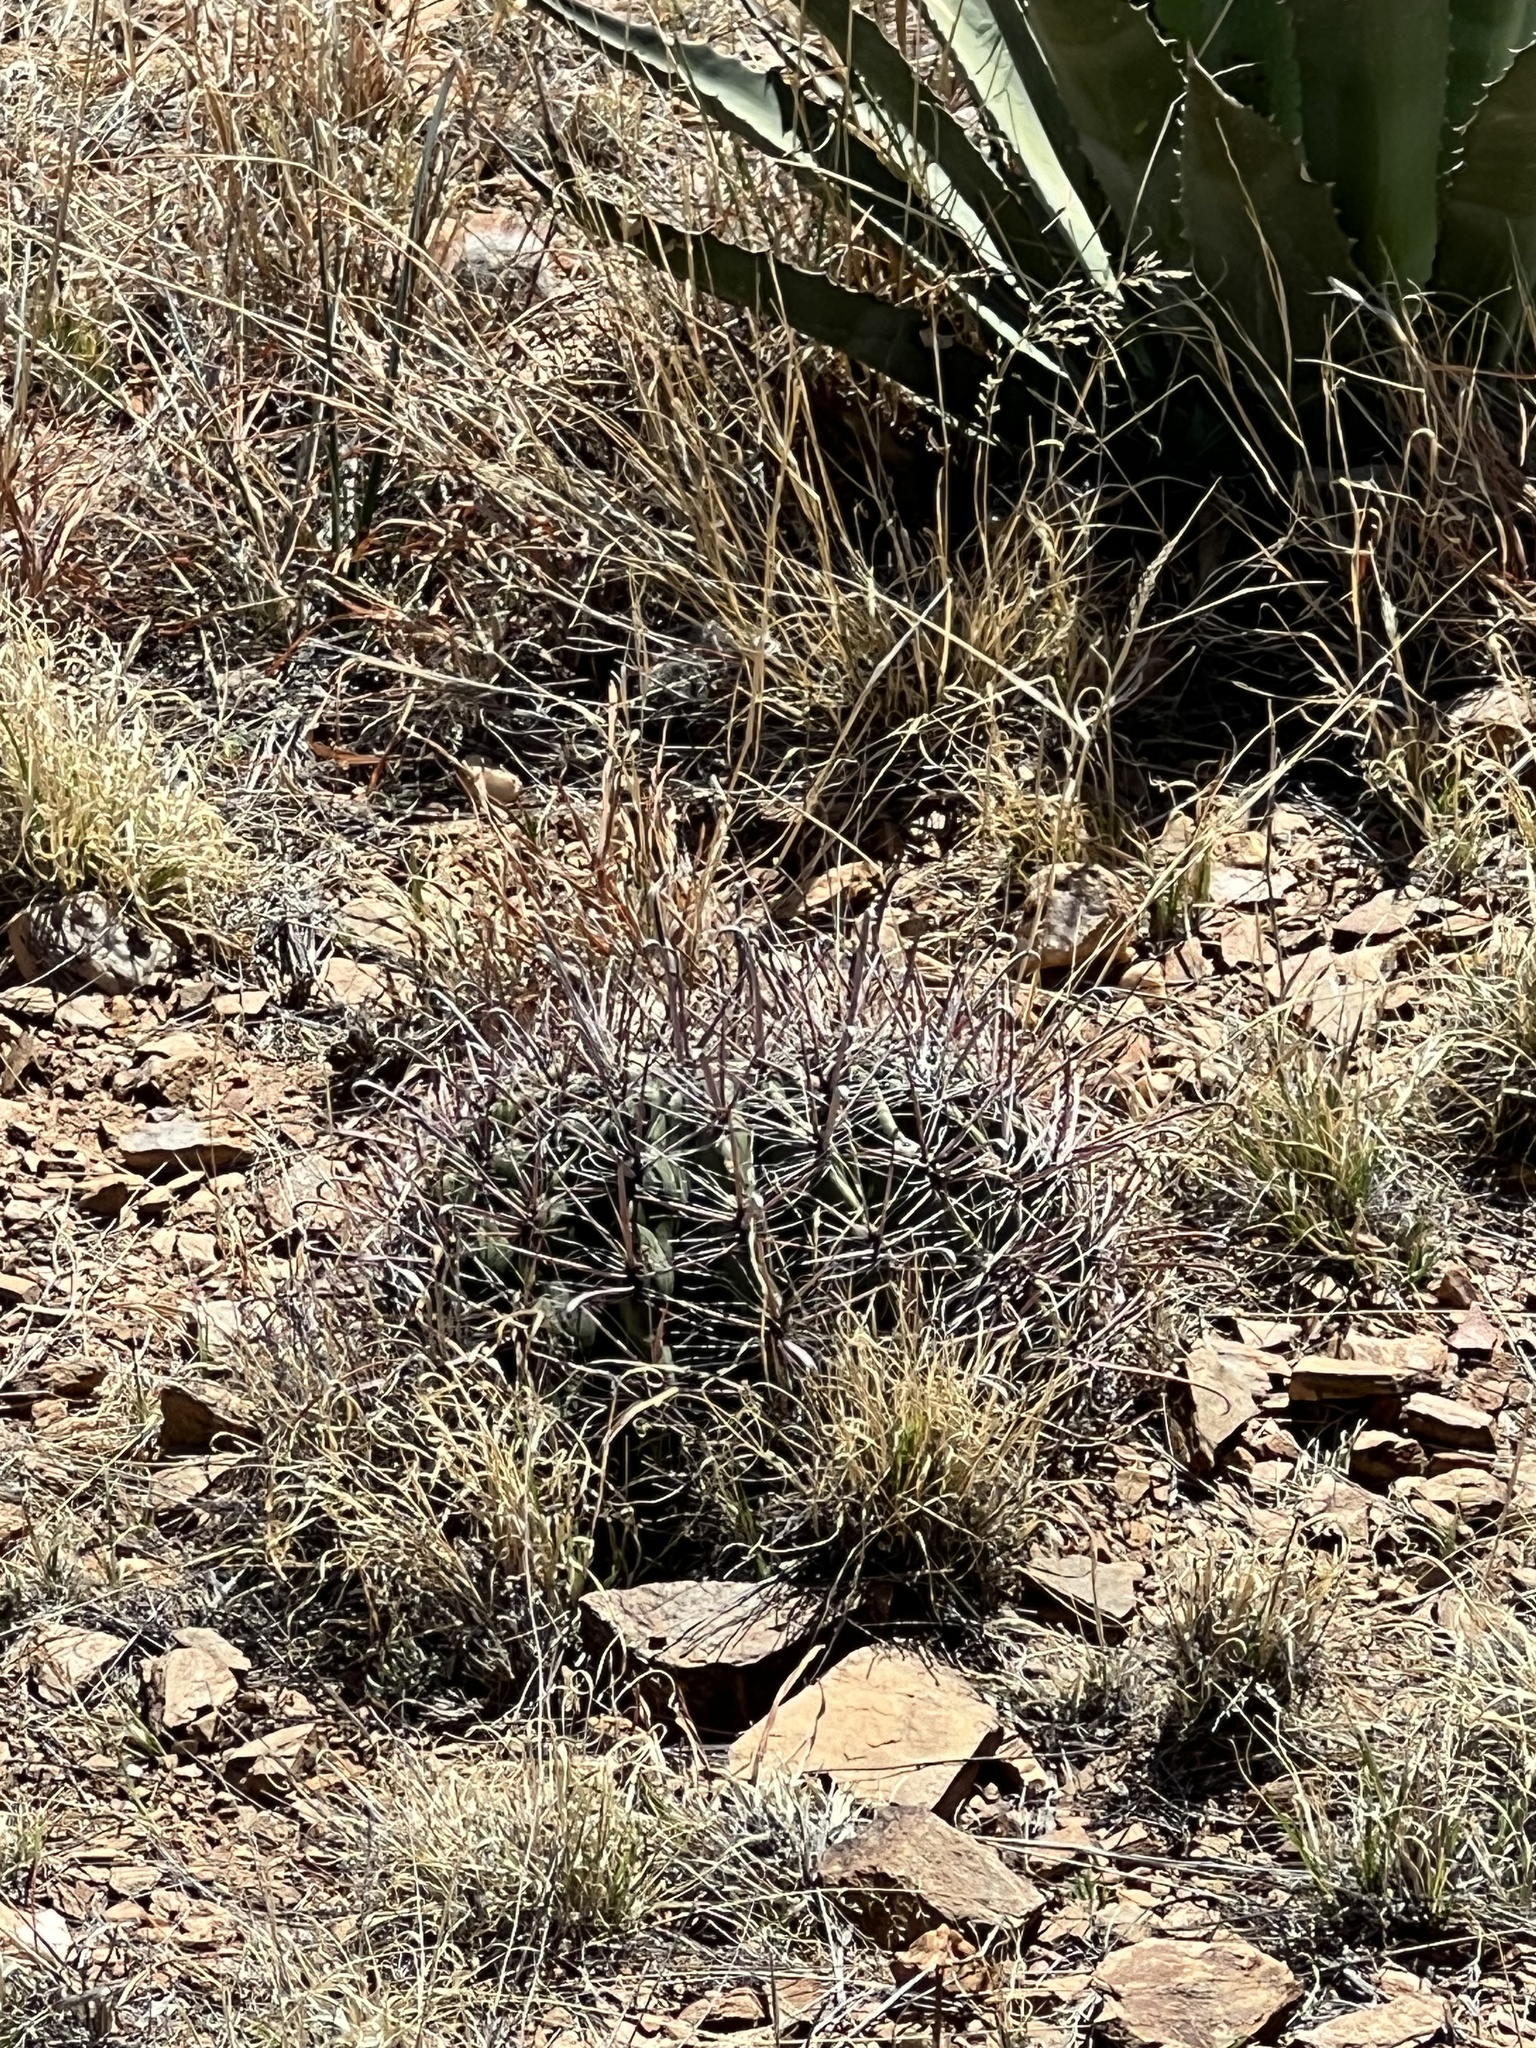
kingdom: Plantae
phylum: Tracheophyta
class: Magnoliopsida
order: Caryophyllales
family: Cactaceae
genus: Ferocactus
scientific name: Ferocactus wislizeni
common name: Candy barrel cactus
